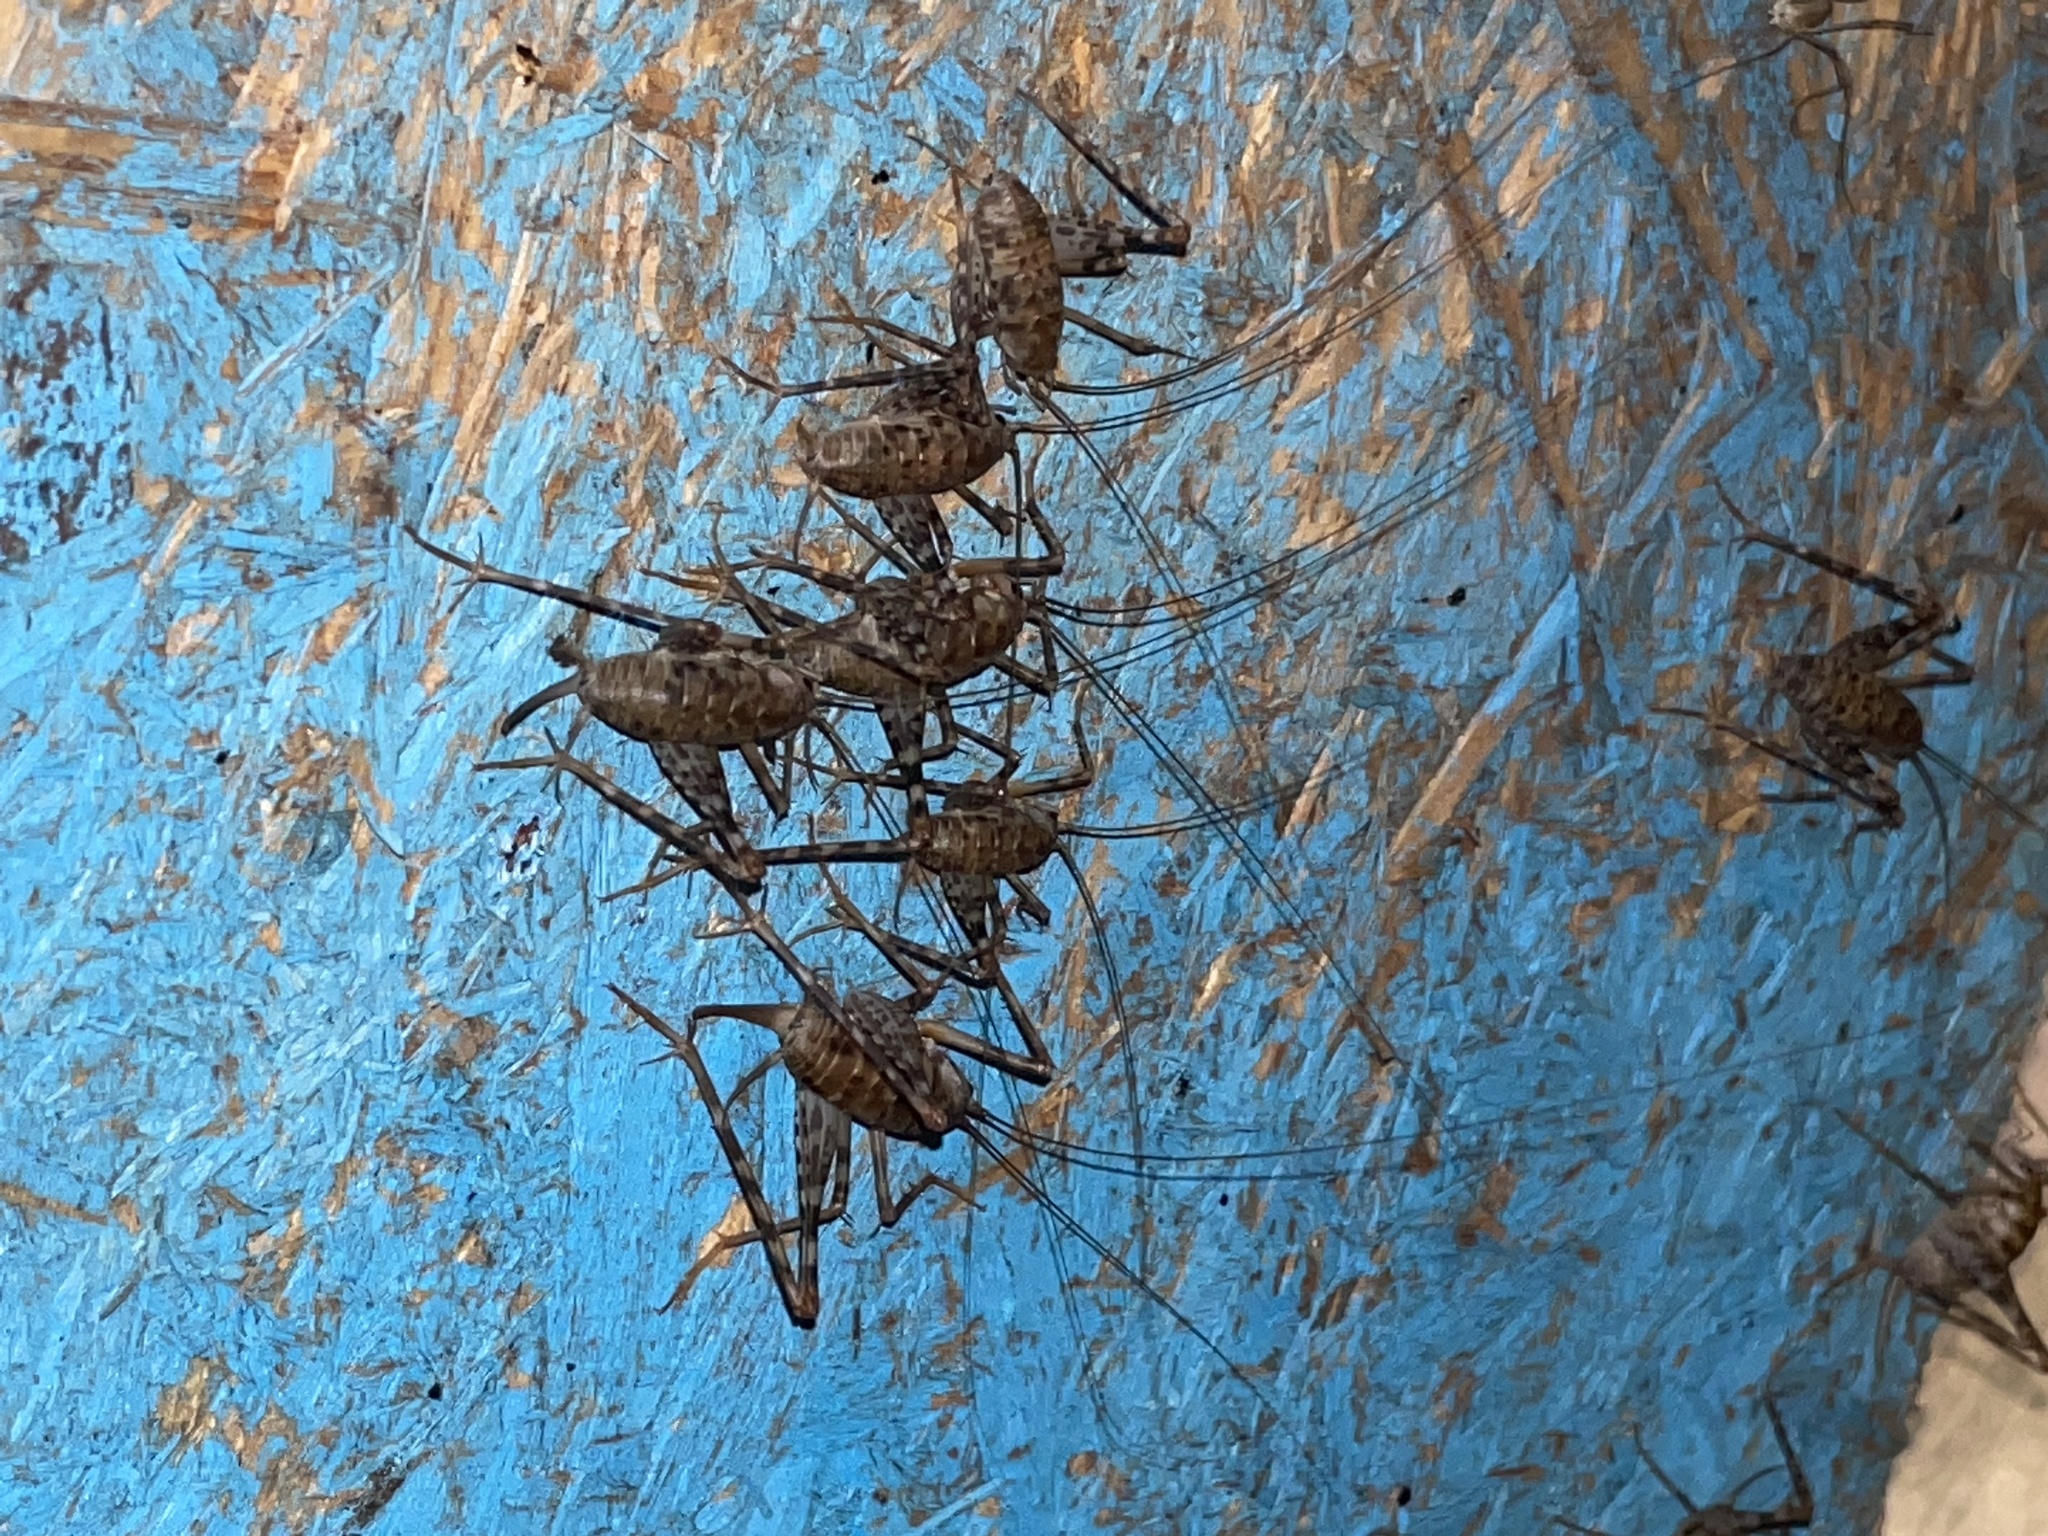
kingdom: Animalia
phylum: Arthropoda
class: Insecta
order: Orthoptera
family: Rhaphidophoridae
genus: Tachycines
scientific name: Tachycines asynamorus
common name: Greenhouse camel cricket
